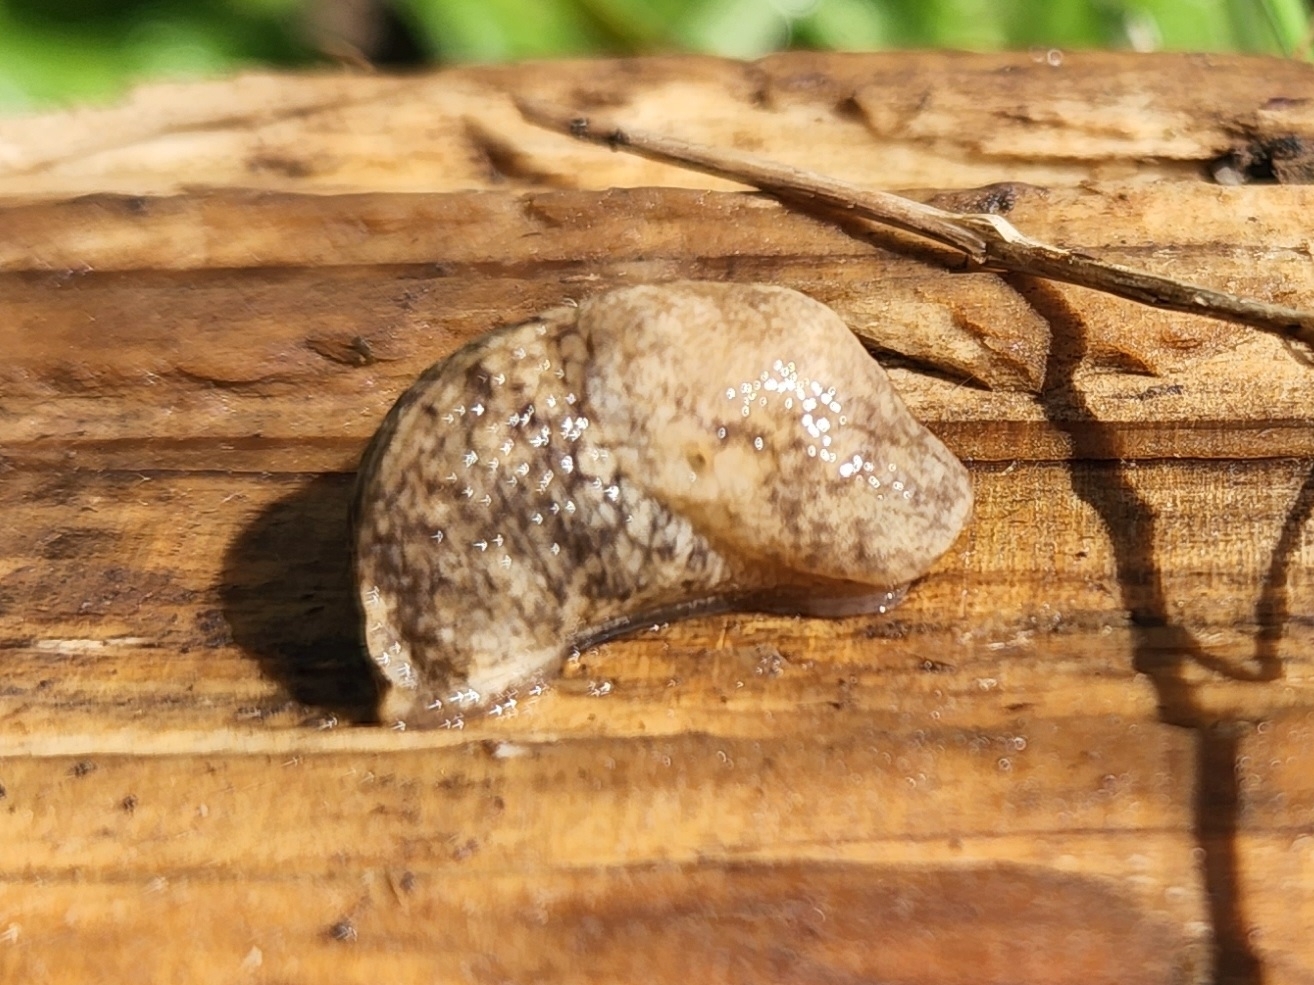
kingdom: Animalia
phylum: Mollusca
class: Gastropoda
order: Stylommatophora
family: Agriolimacidae
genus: Deroceras
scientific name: Deroceras reticulatum
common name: Gray field slug
